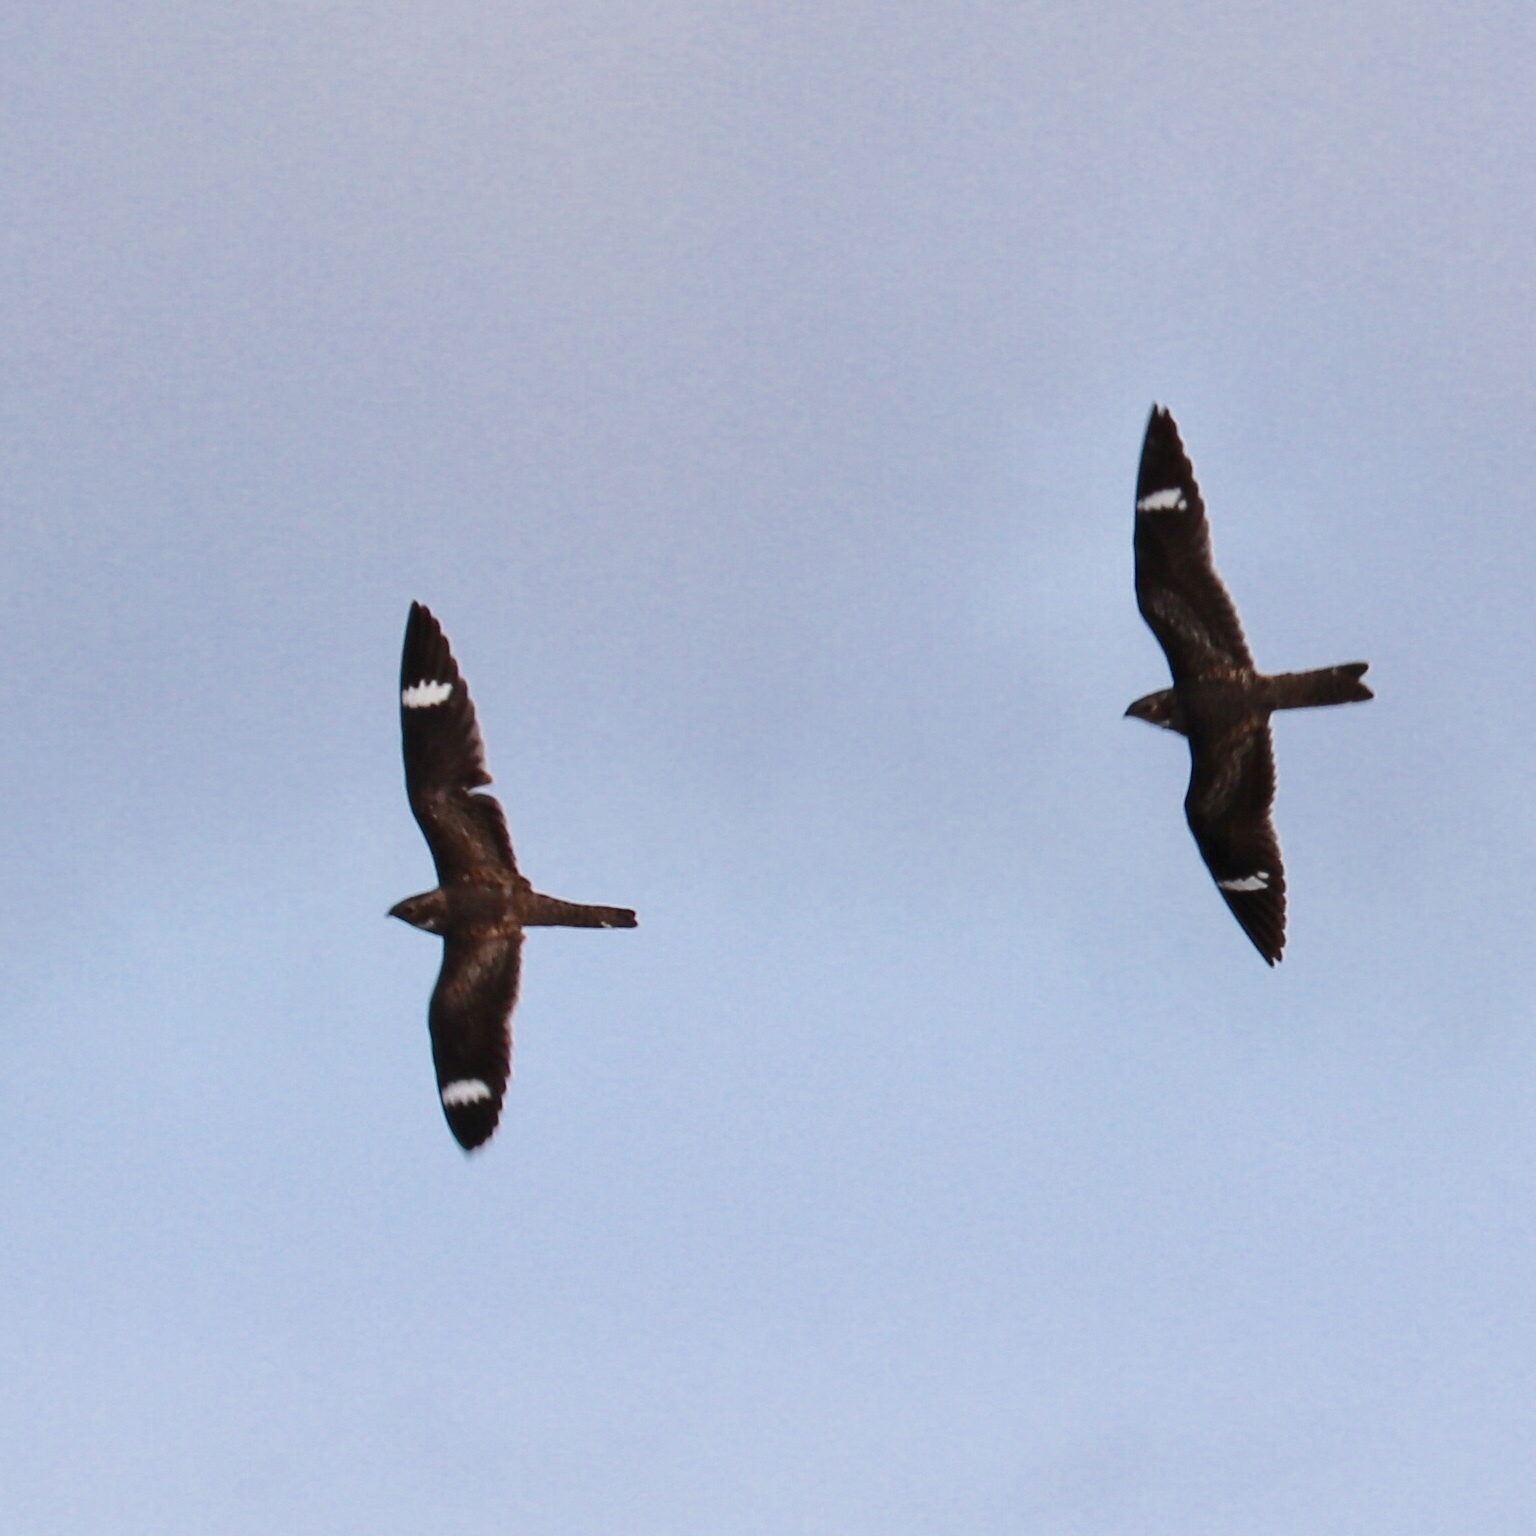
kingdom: Animalia
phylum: Chordata
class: Aves
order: Caprimulgiformes
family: Caprimulgidae
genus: Chordeiles
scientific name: Chordeiles gundlachii
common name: Antillean nighthawk
